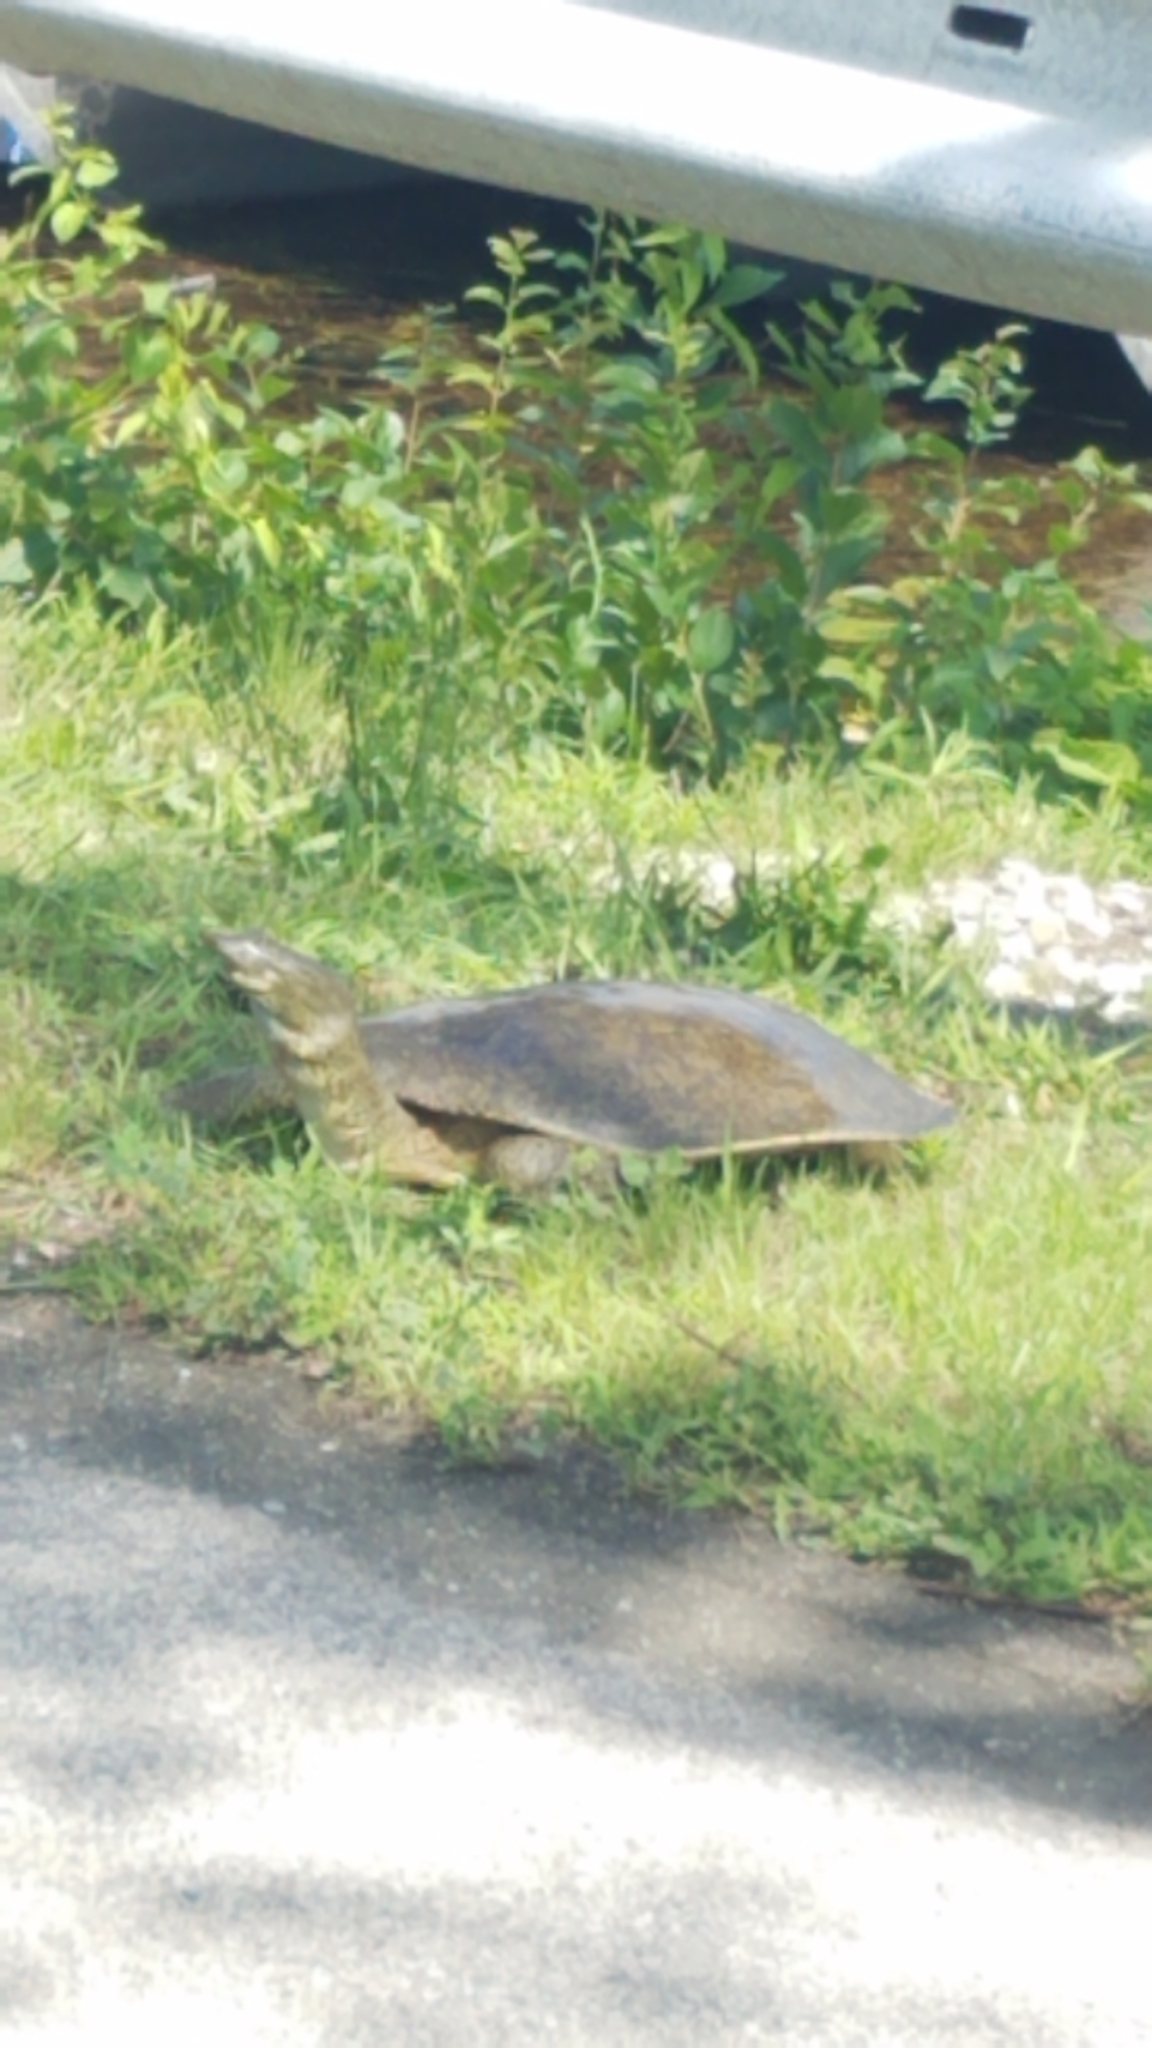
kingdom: Animalia
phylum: Chordata
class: Testudines
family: Trionychidae
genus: Apalone
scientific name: Apalone spinifera
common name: Spiny softshell turtle
